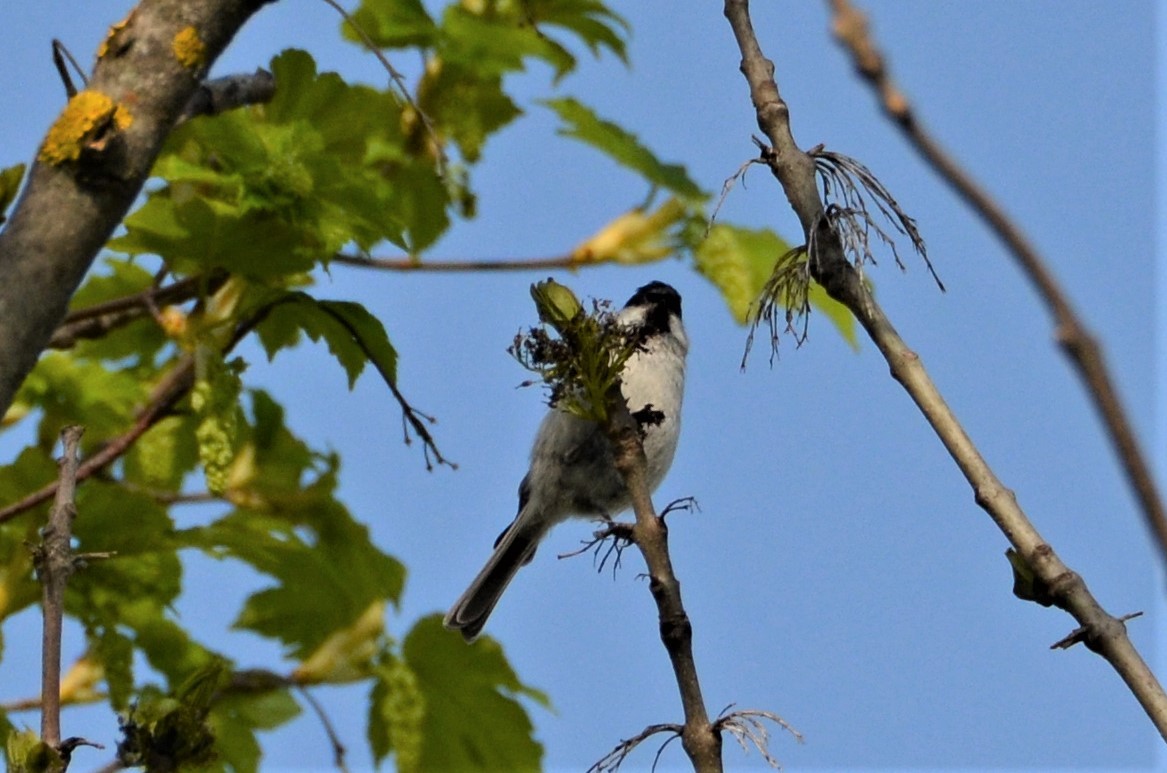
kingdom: Animalia
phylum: Chordata
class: Aves
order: Passeriformes
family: Paridae
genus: Poecile
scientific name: Poecile palustris
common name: Marsh tit
